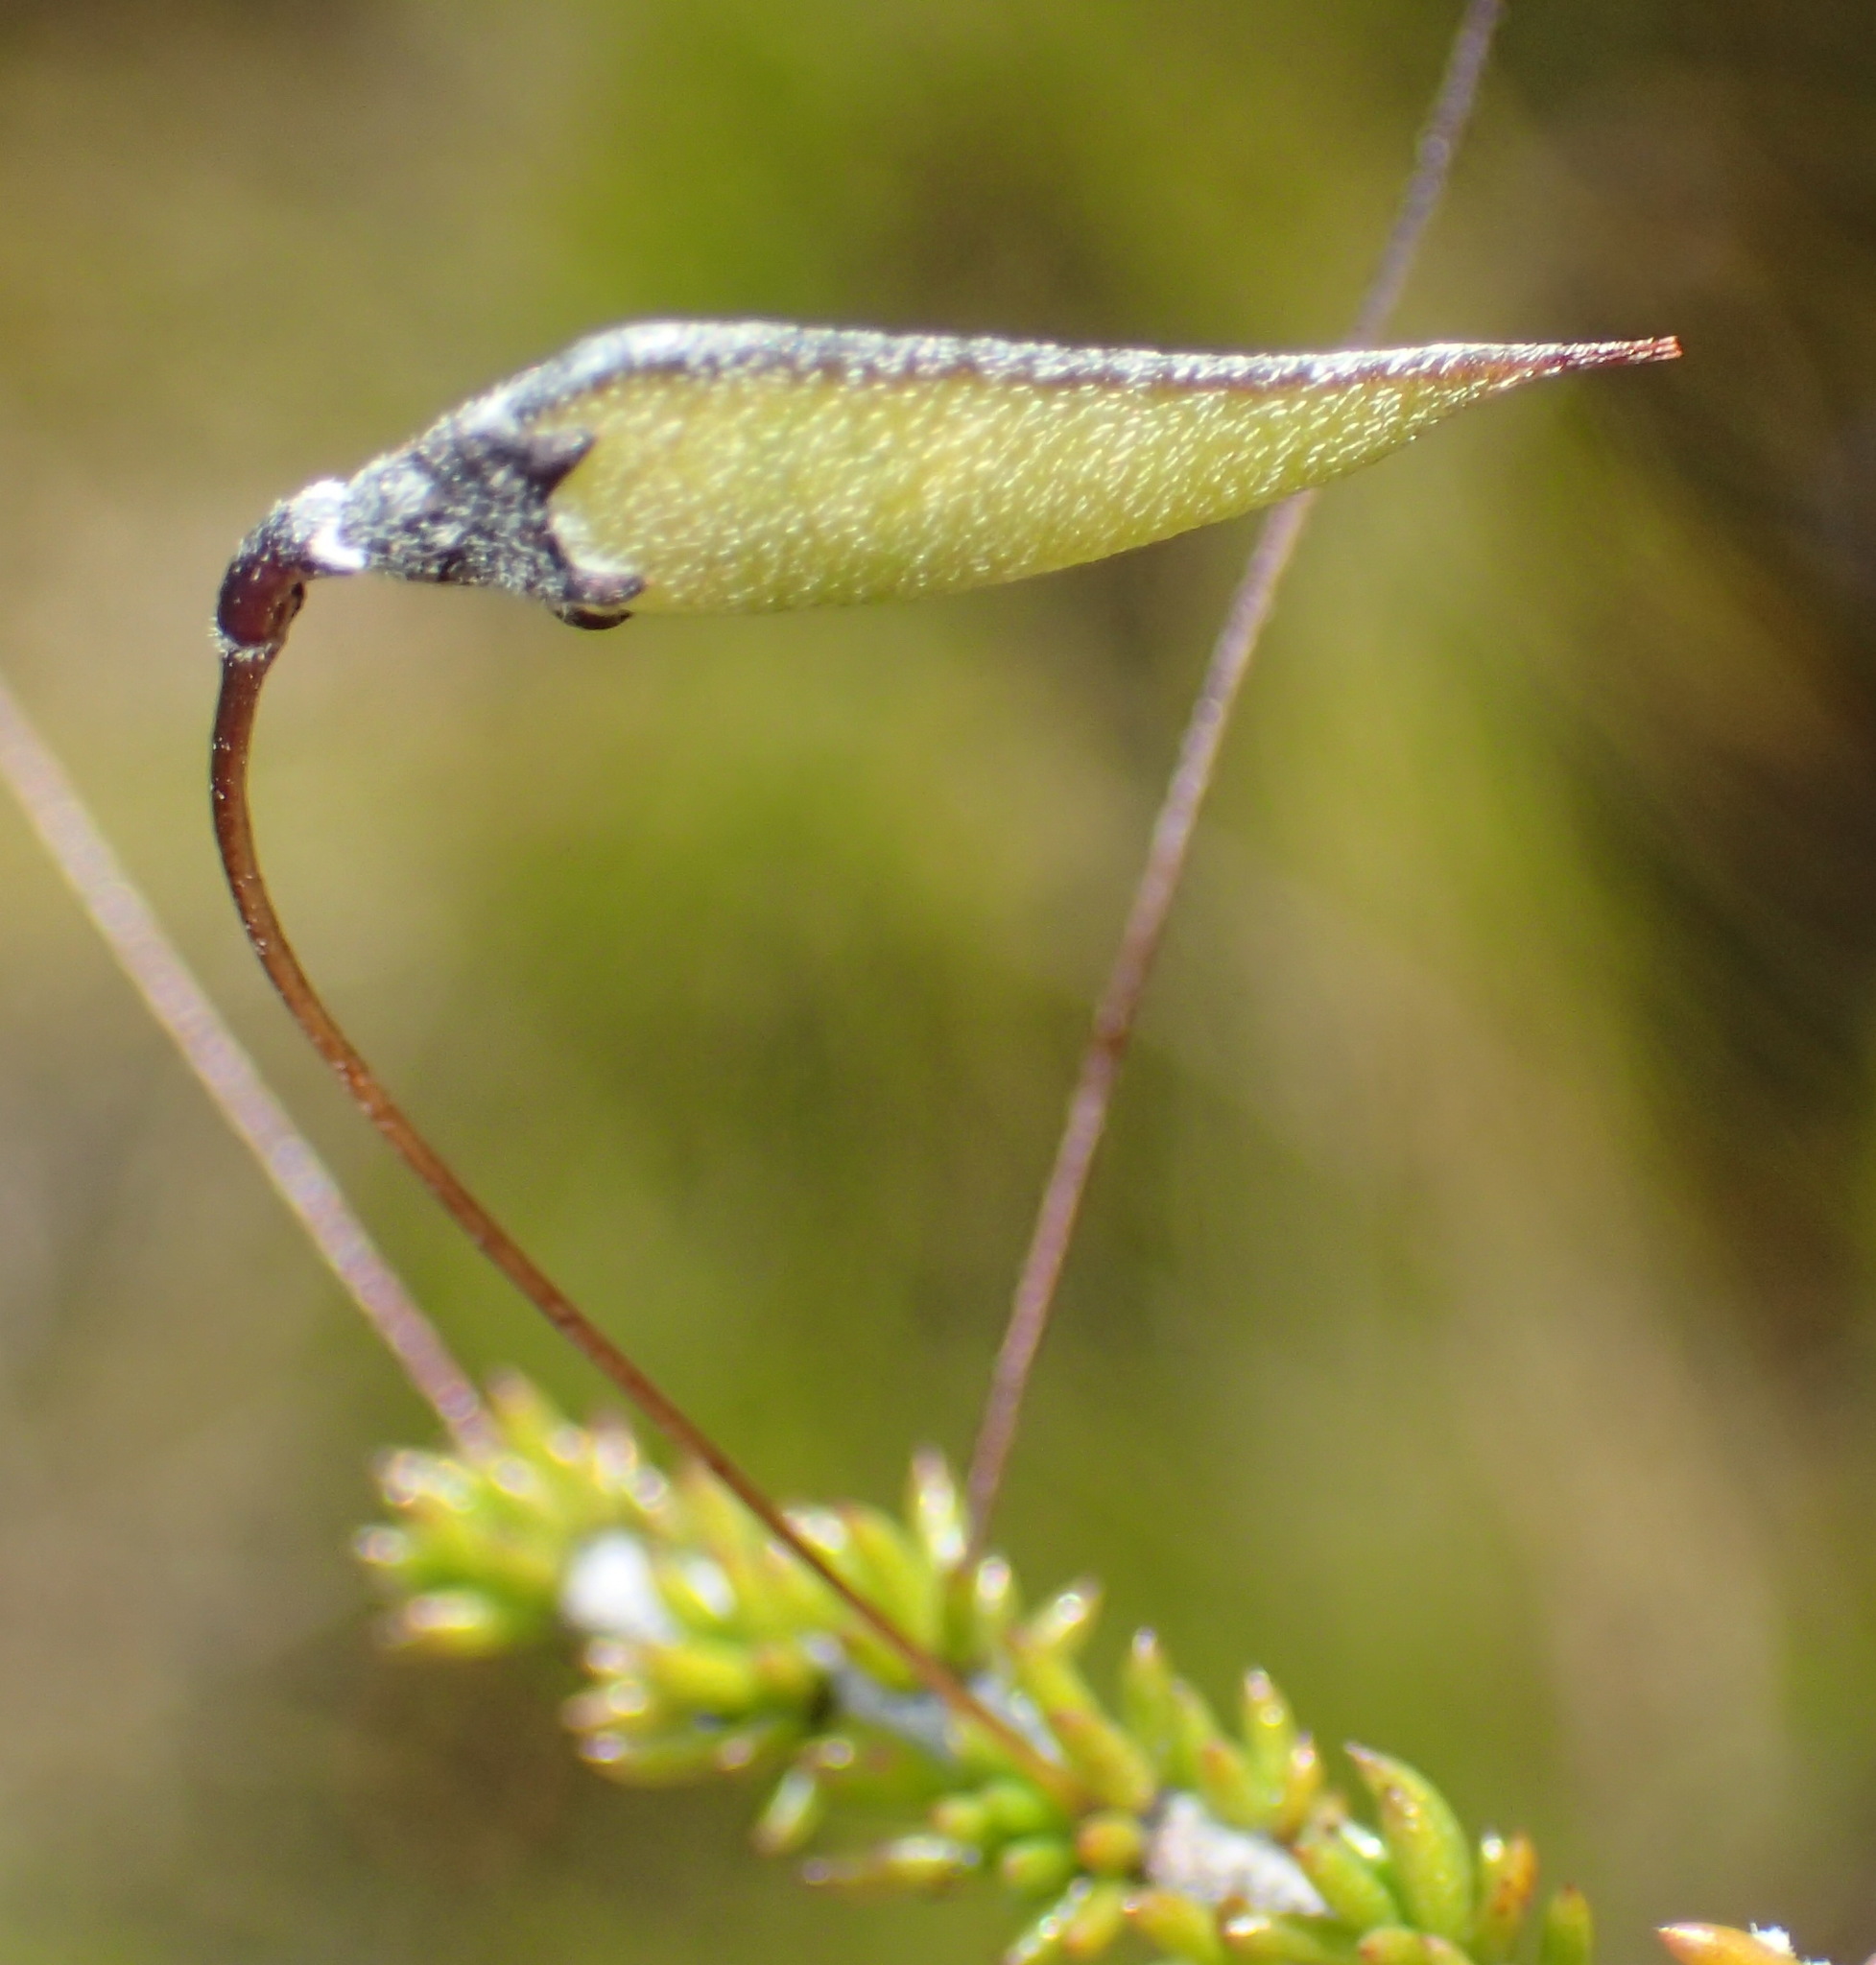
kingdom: Plantae
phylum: Tracheophyta
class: Magnoliopsida
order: Fabales
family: Fabaceae
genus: Aspalathus
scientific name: Aspalathus tenuissima
